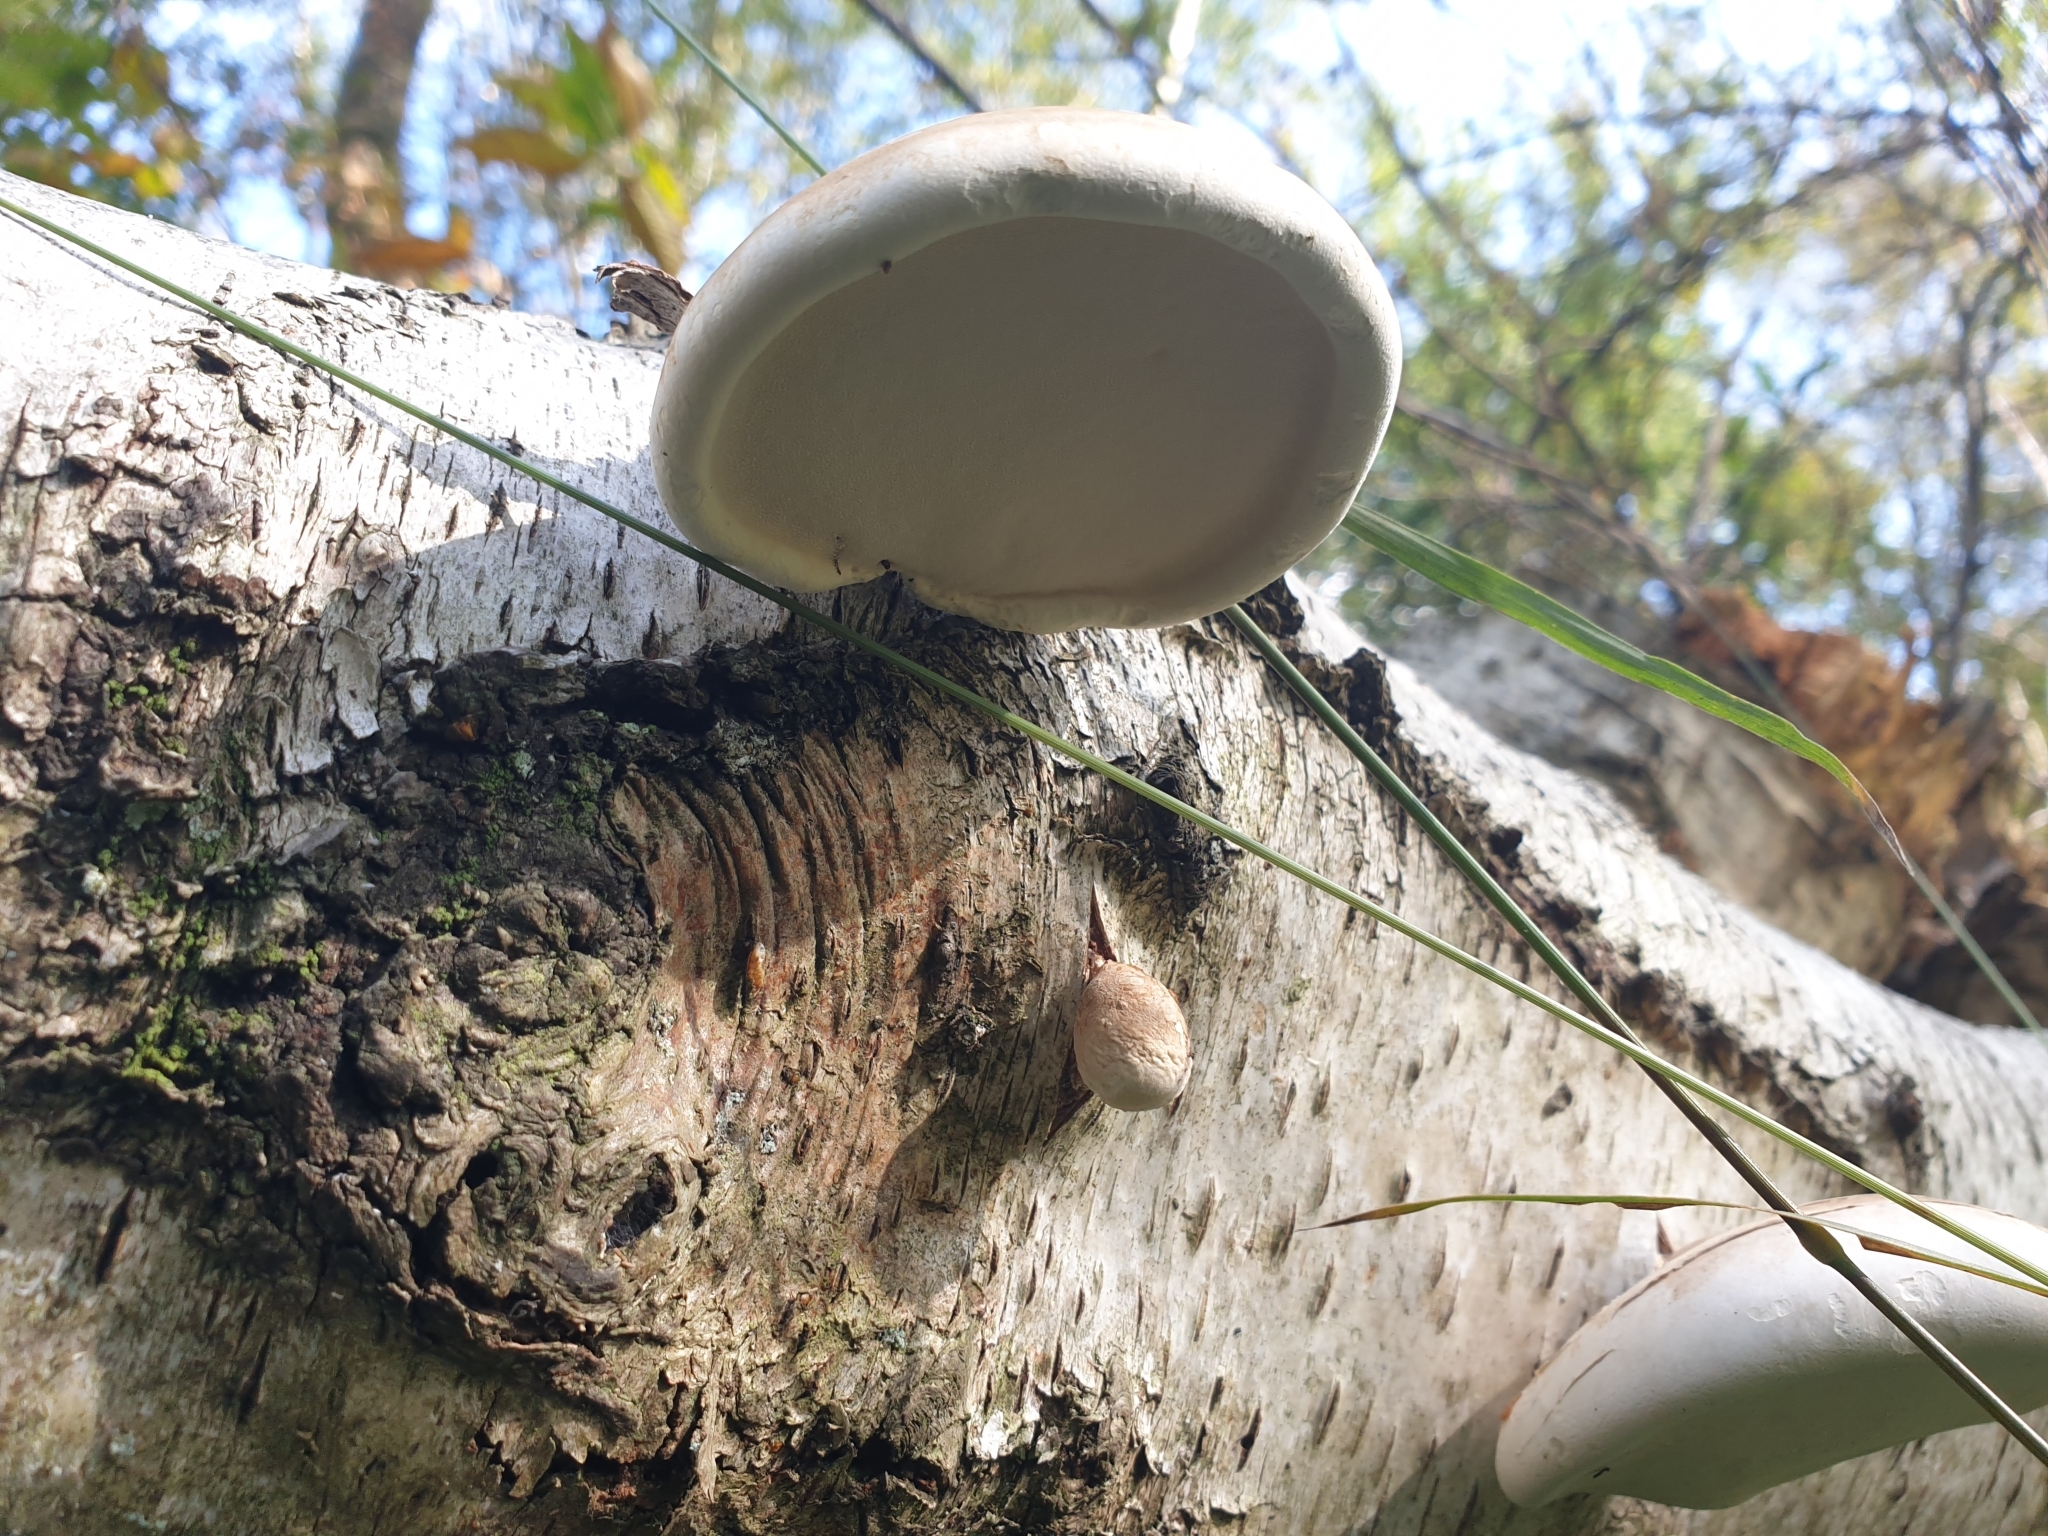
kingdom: Fungi
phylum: Basidiomycota
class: Agaricomycetes
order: Polyporales
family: Fomitopsidaceae
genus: Fomitopsis
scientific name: Fomitopsis betulina
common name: Birch polypore
